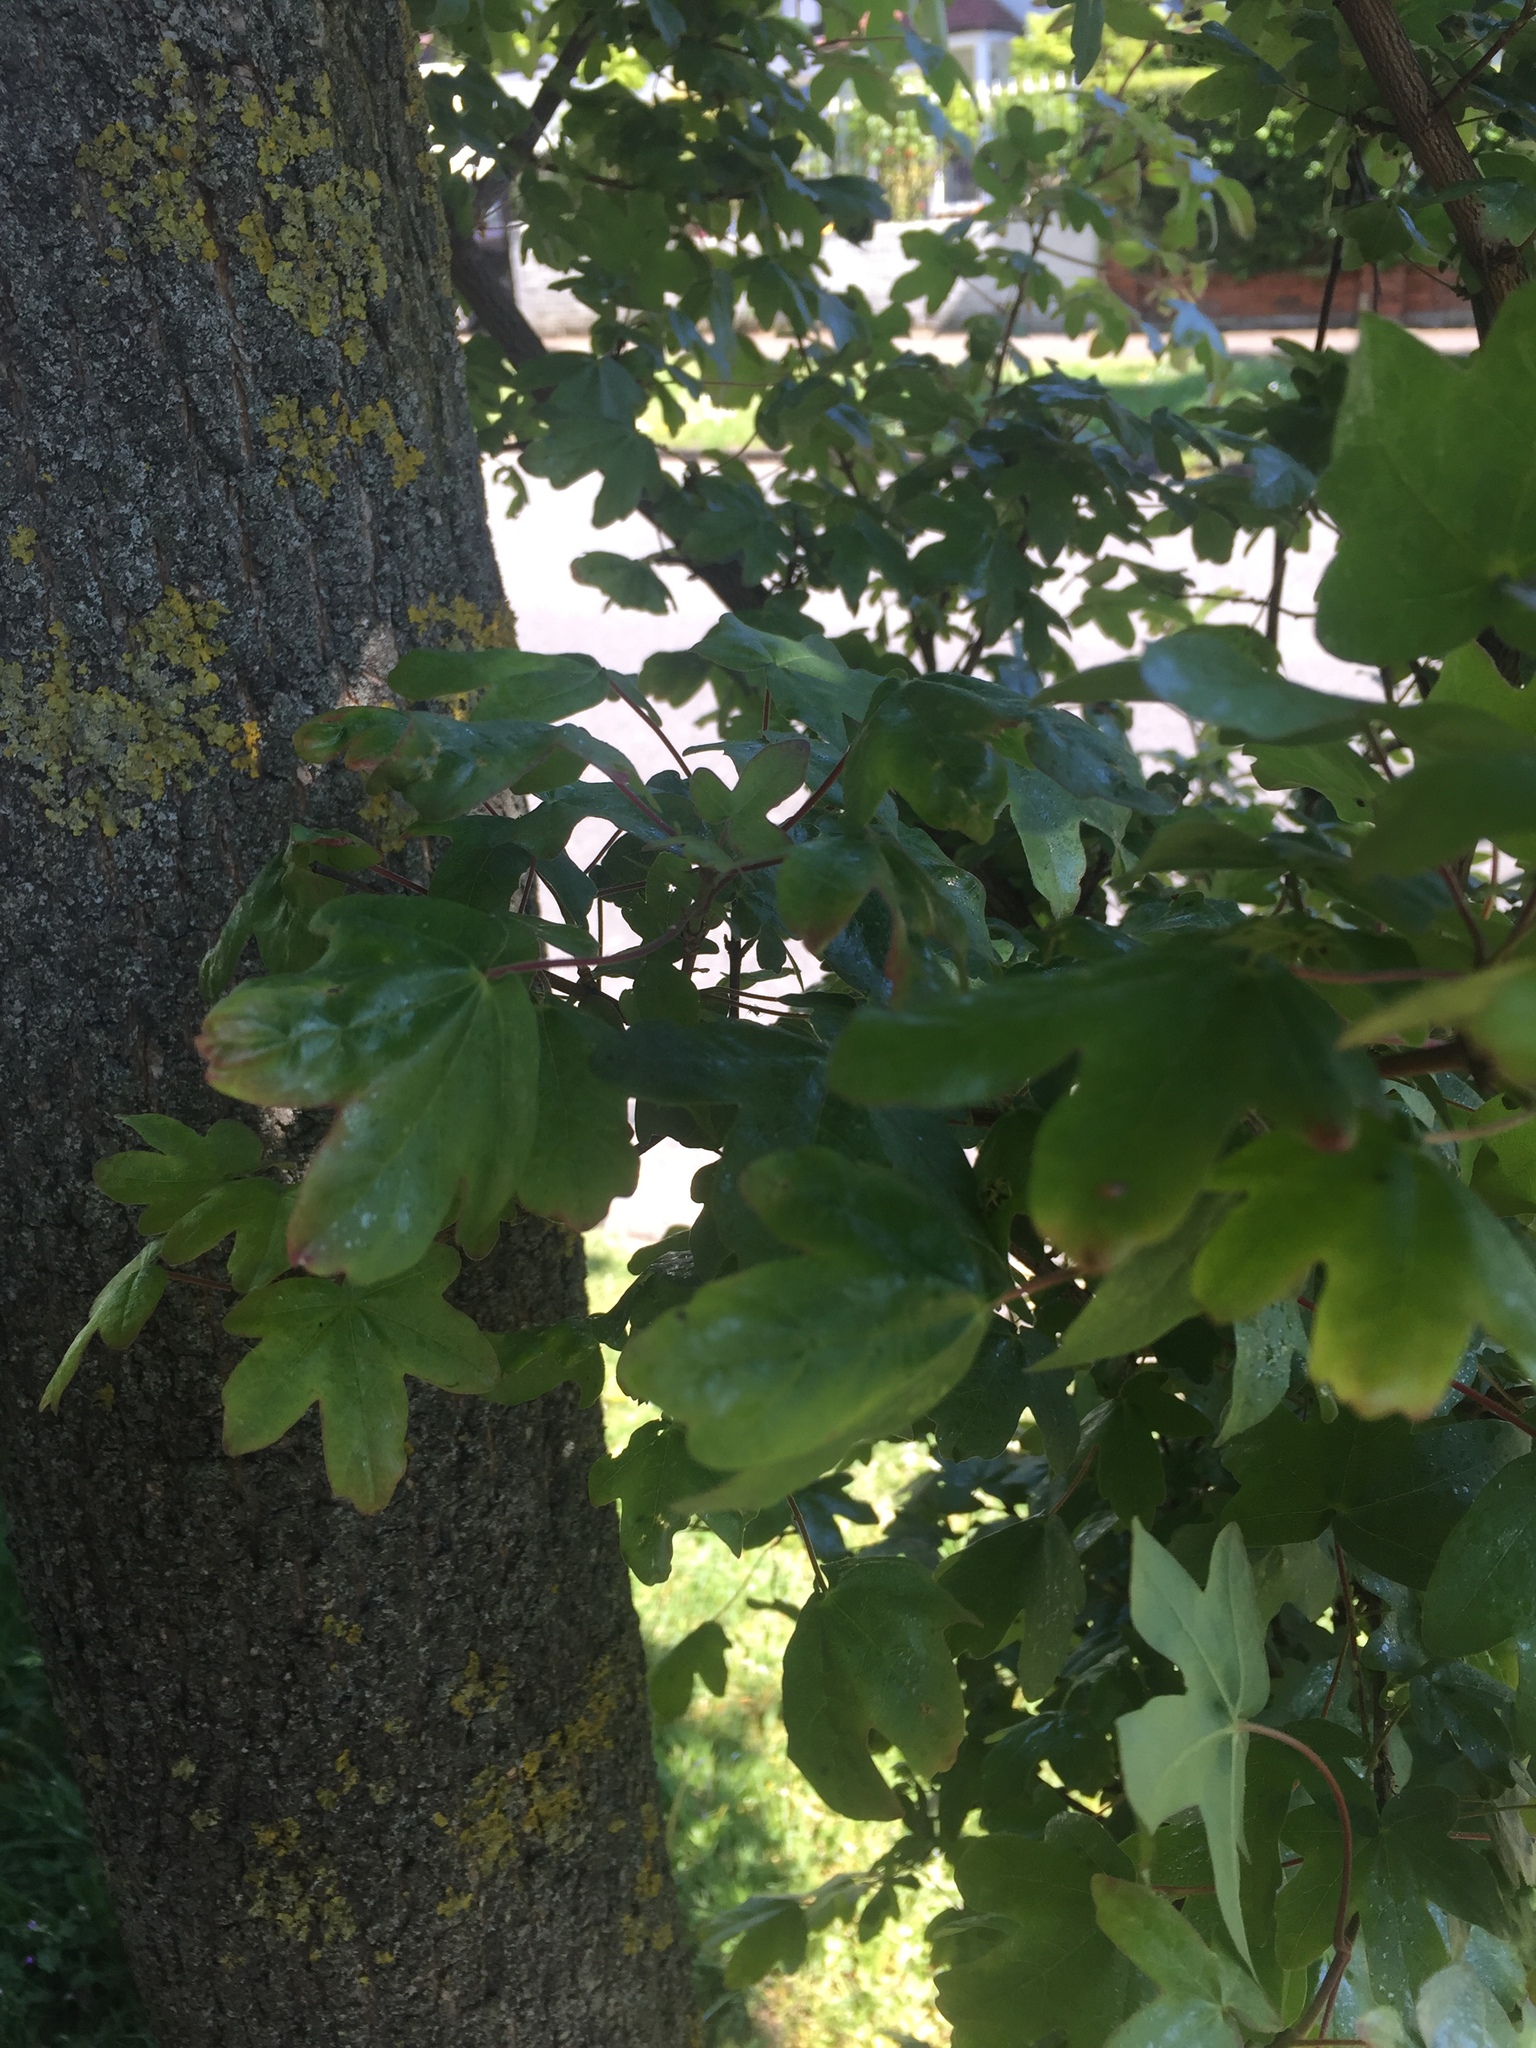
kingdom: Plantae
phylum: Tracheophyta
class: Magnoliopsida
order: Sapindales
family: Sapindaceae
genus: Acer
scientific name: Acer campestre
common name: Field maple
